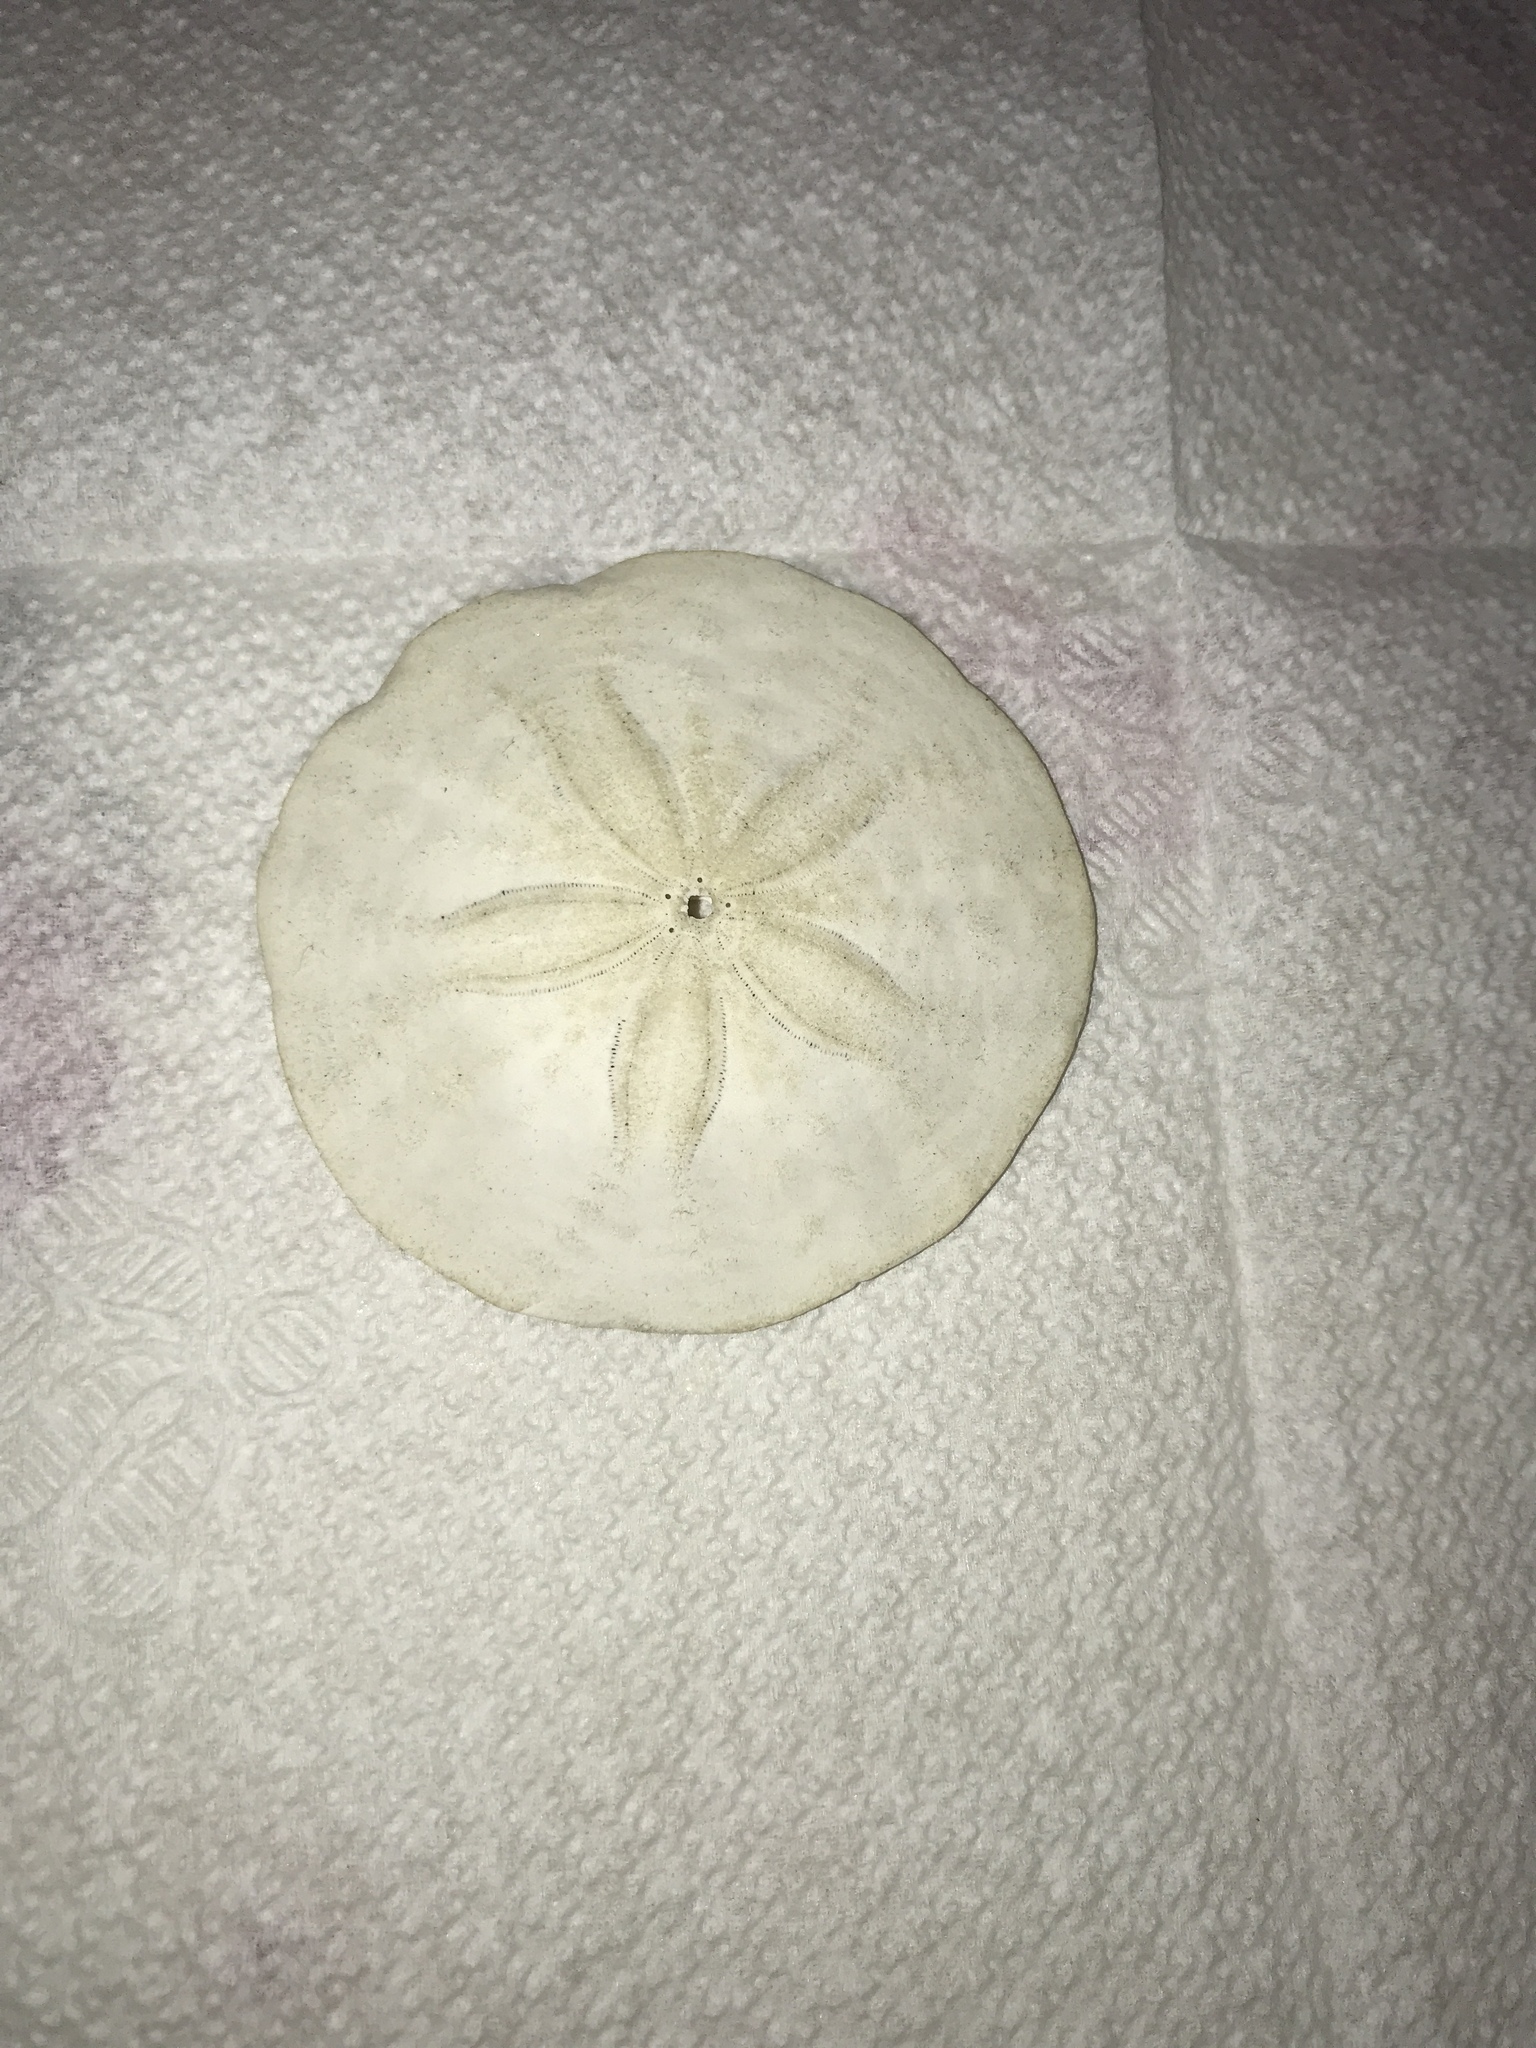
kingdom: Animalia
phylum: Echinodermata
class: Echinoidea
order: Echinolampadacea
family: Echinarachniidae
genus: Echinarachnius
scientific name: Echinarachnius parma
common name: Common sand dollar
